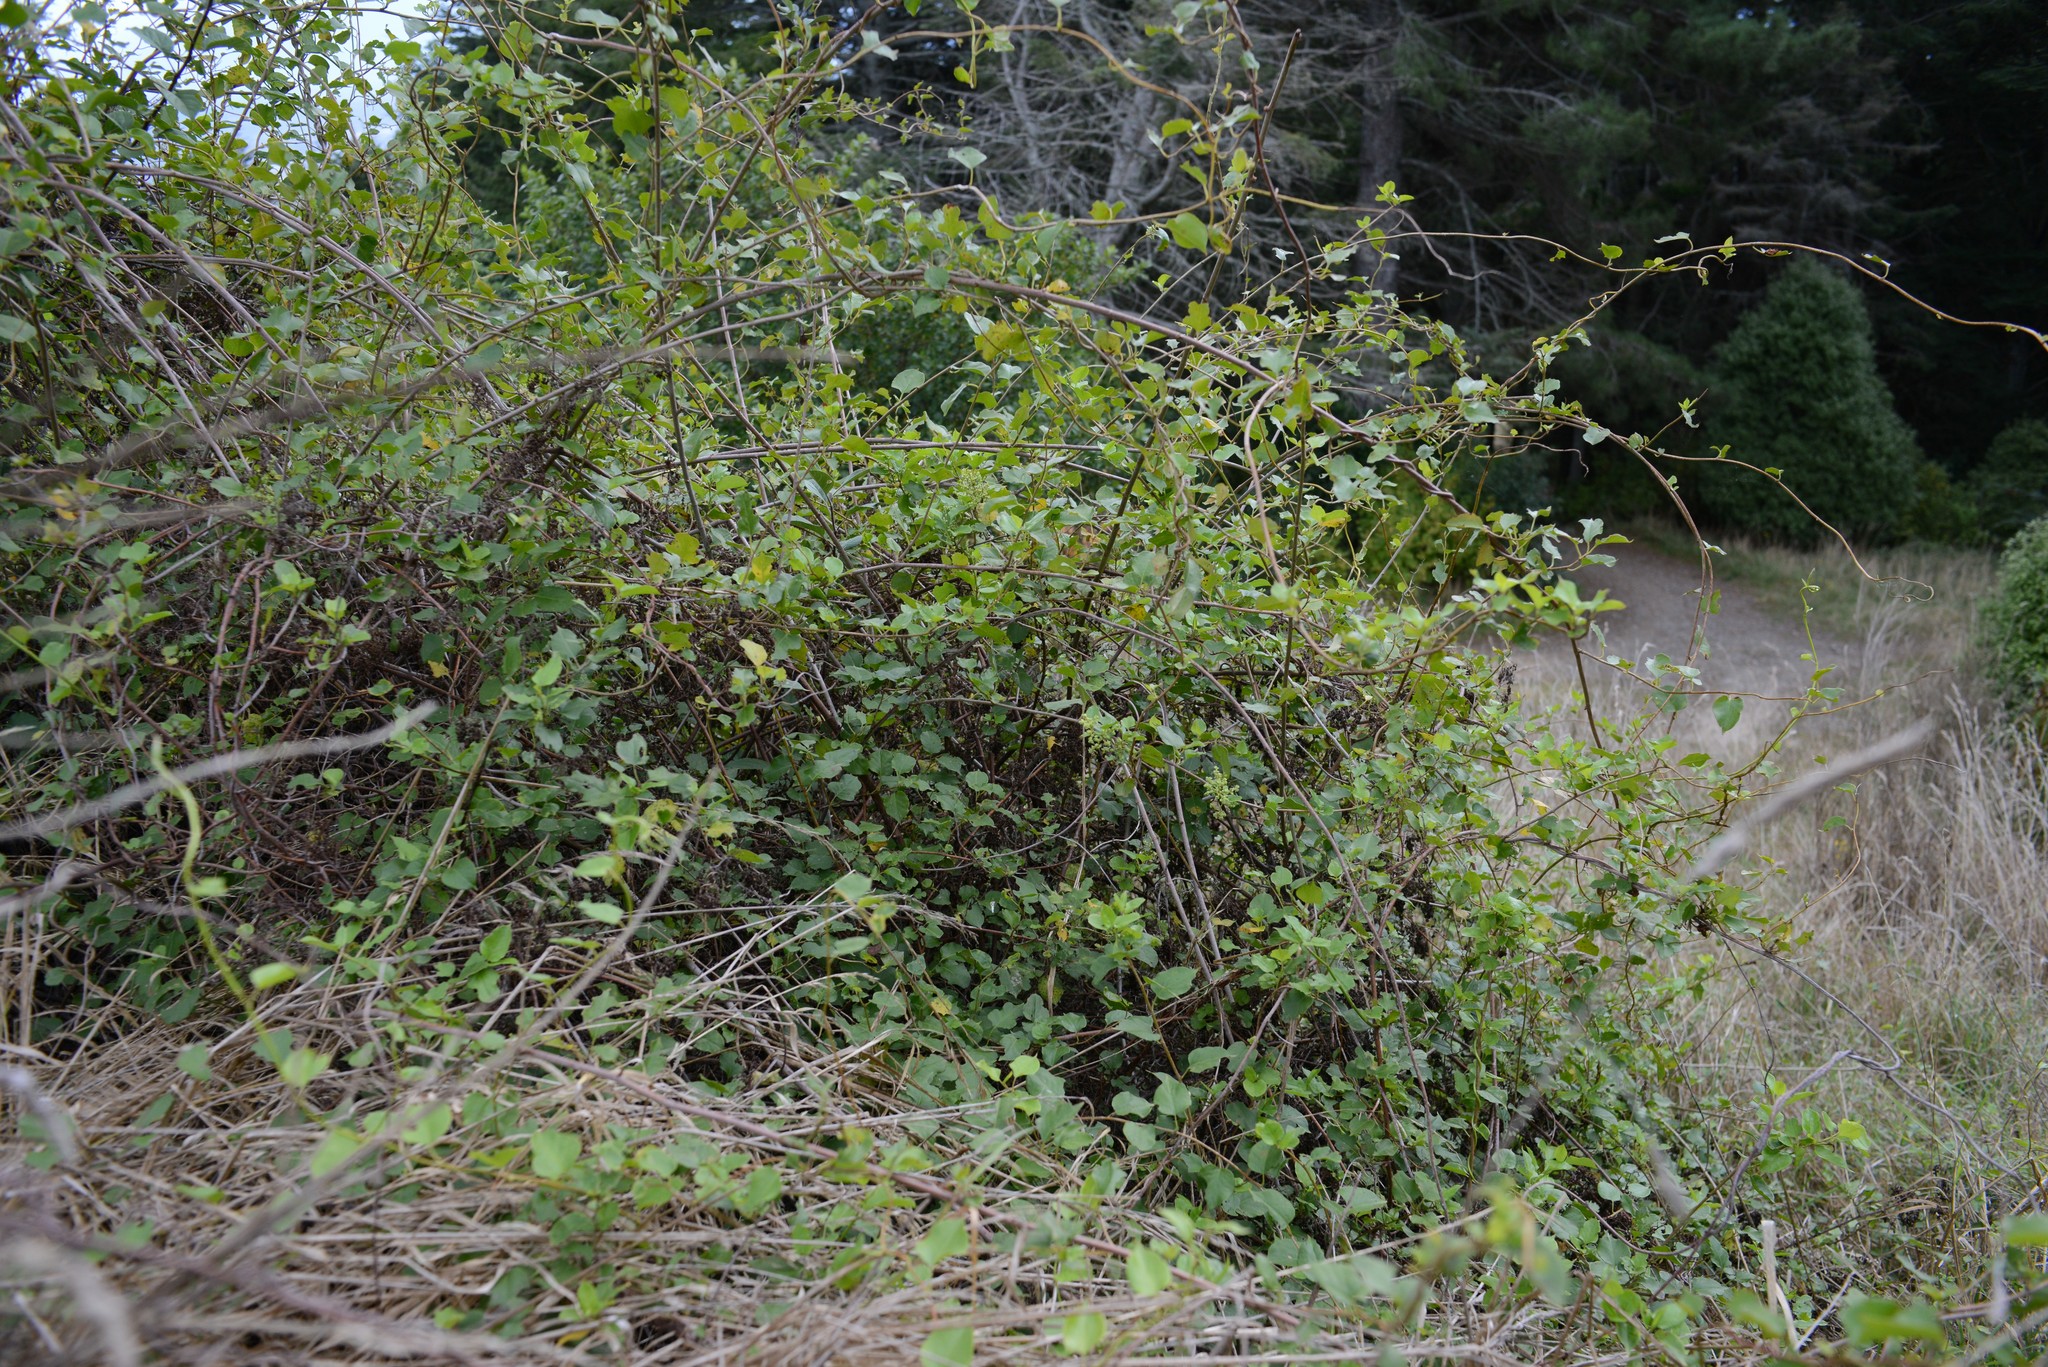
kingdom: Plantae
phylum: Tracheophyta
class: Magnoliopsida
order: Caryophyllales
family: Polygonaceae
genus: Muehlenbeckia
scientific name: Muehlenbeckia australis
